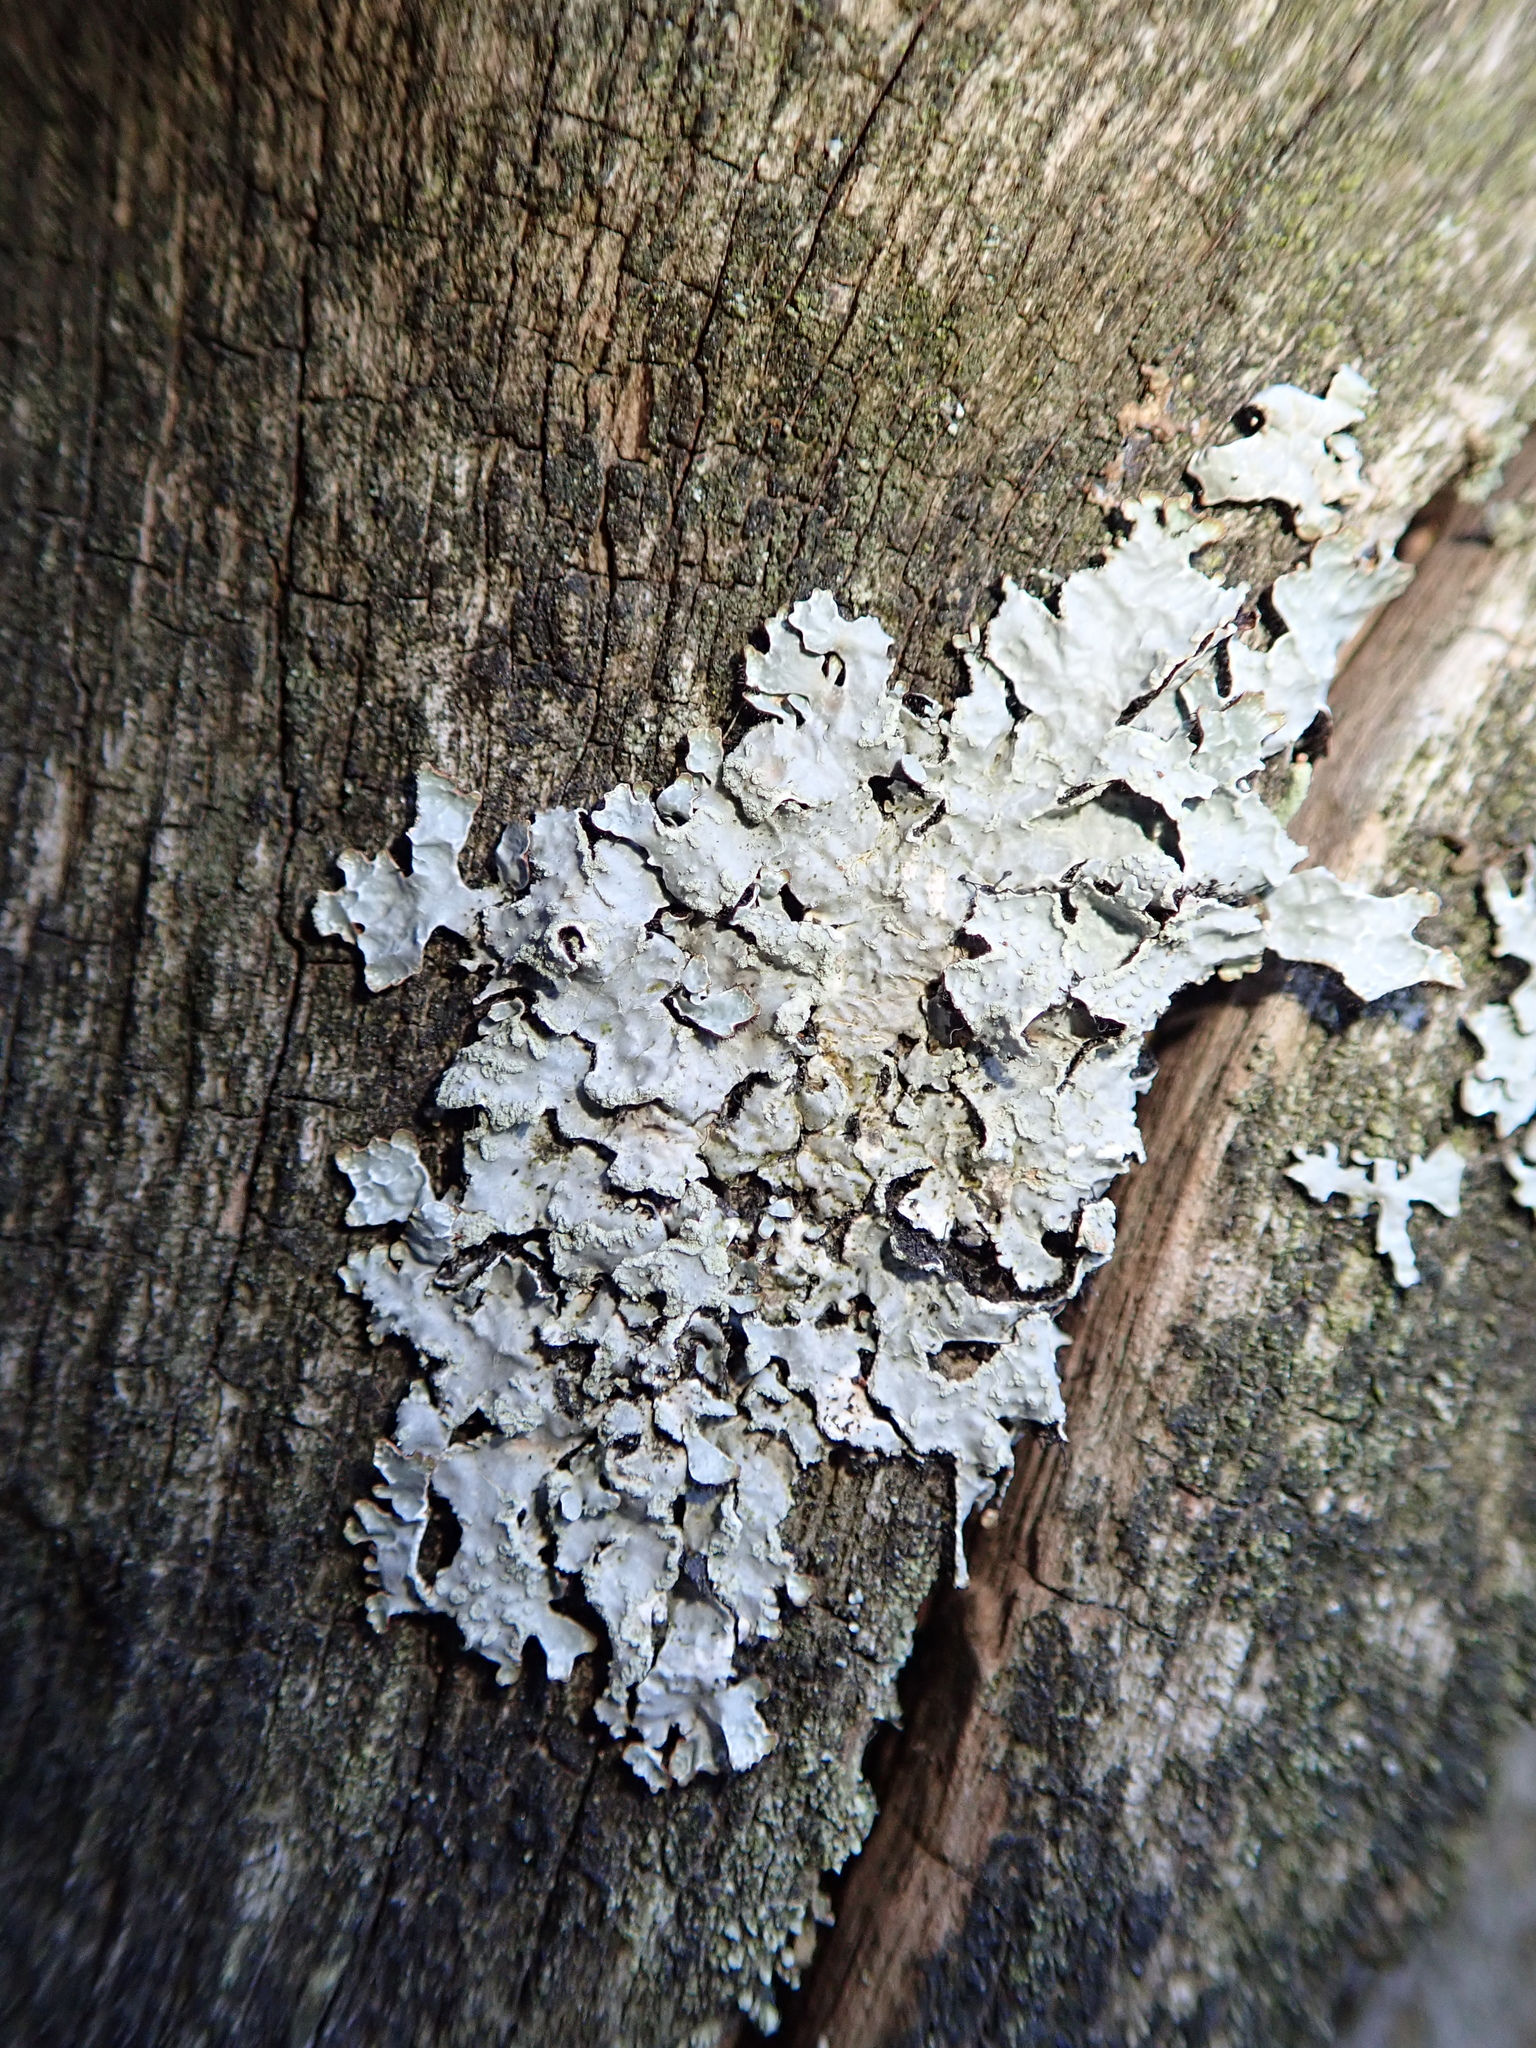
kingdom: Fungi
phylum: Ascomycota
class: Lecanoromycetes
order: Lecanorales
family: Parmeliaceae
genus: Parmelia
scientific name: Parmelia sulcata
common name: Netted shield lichen
